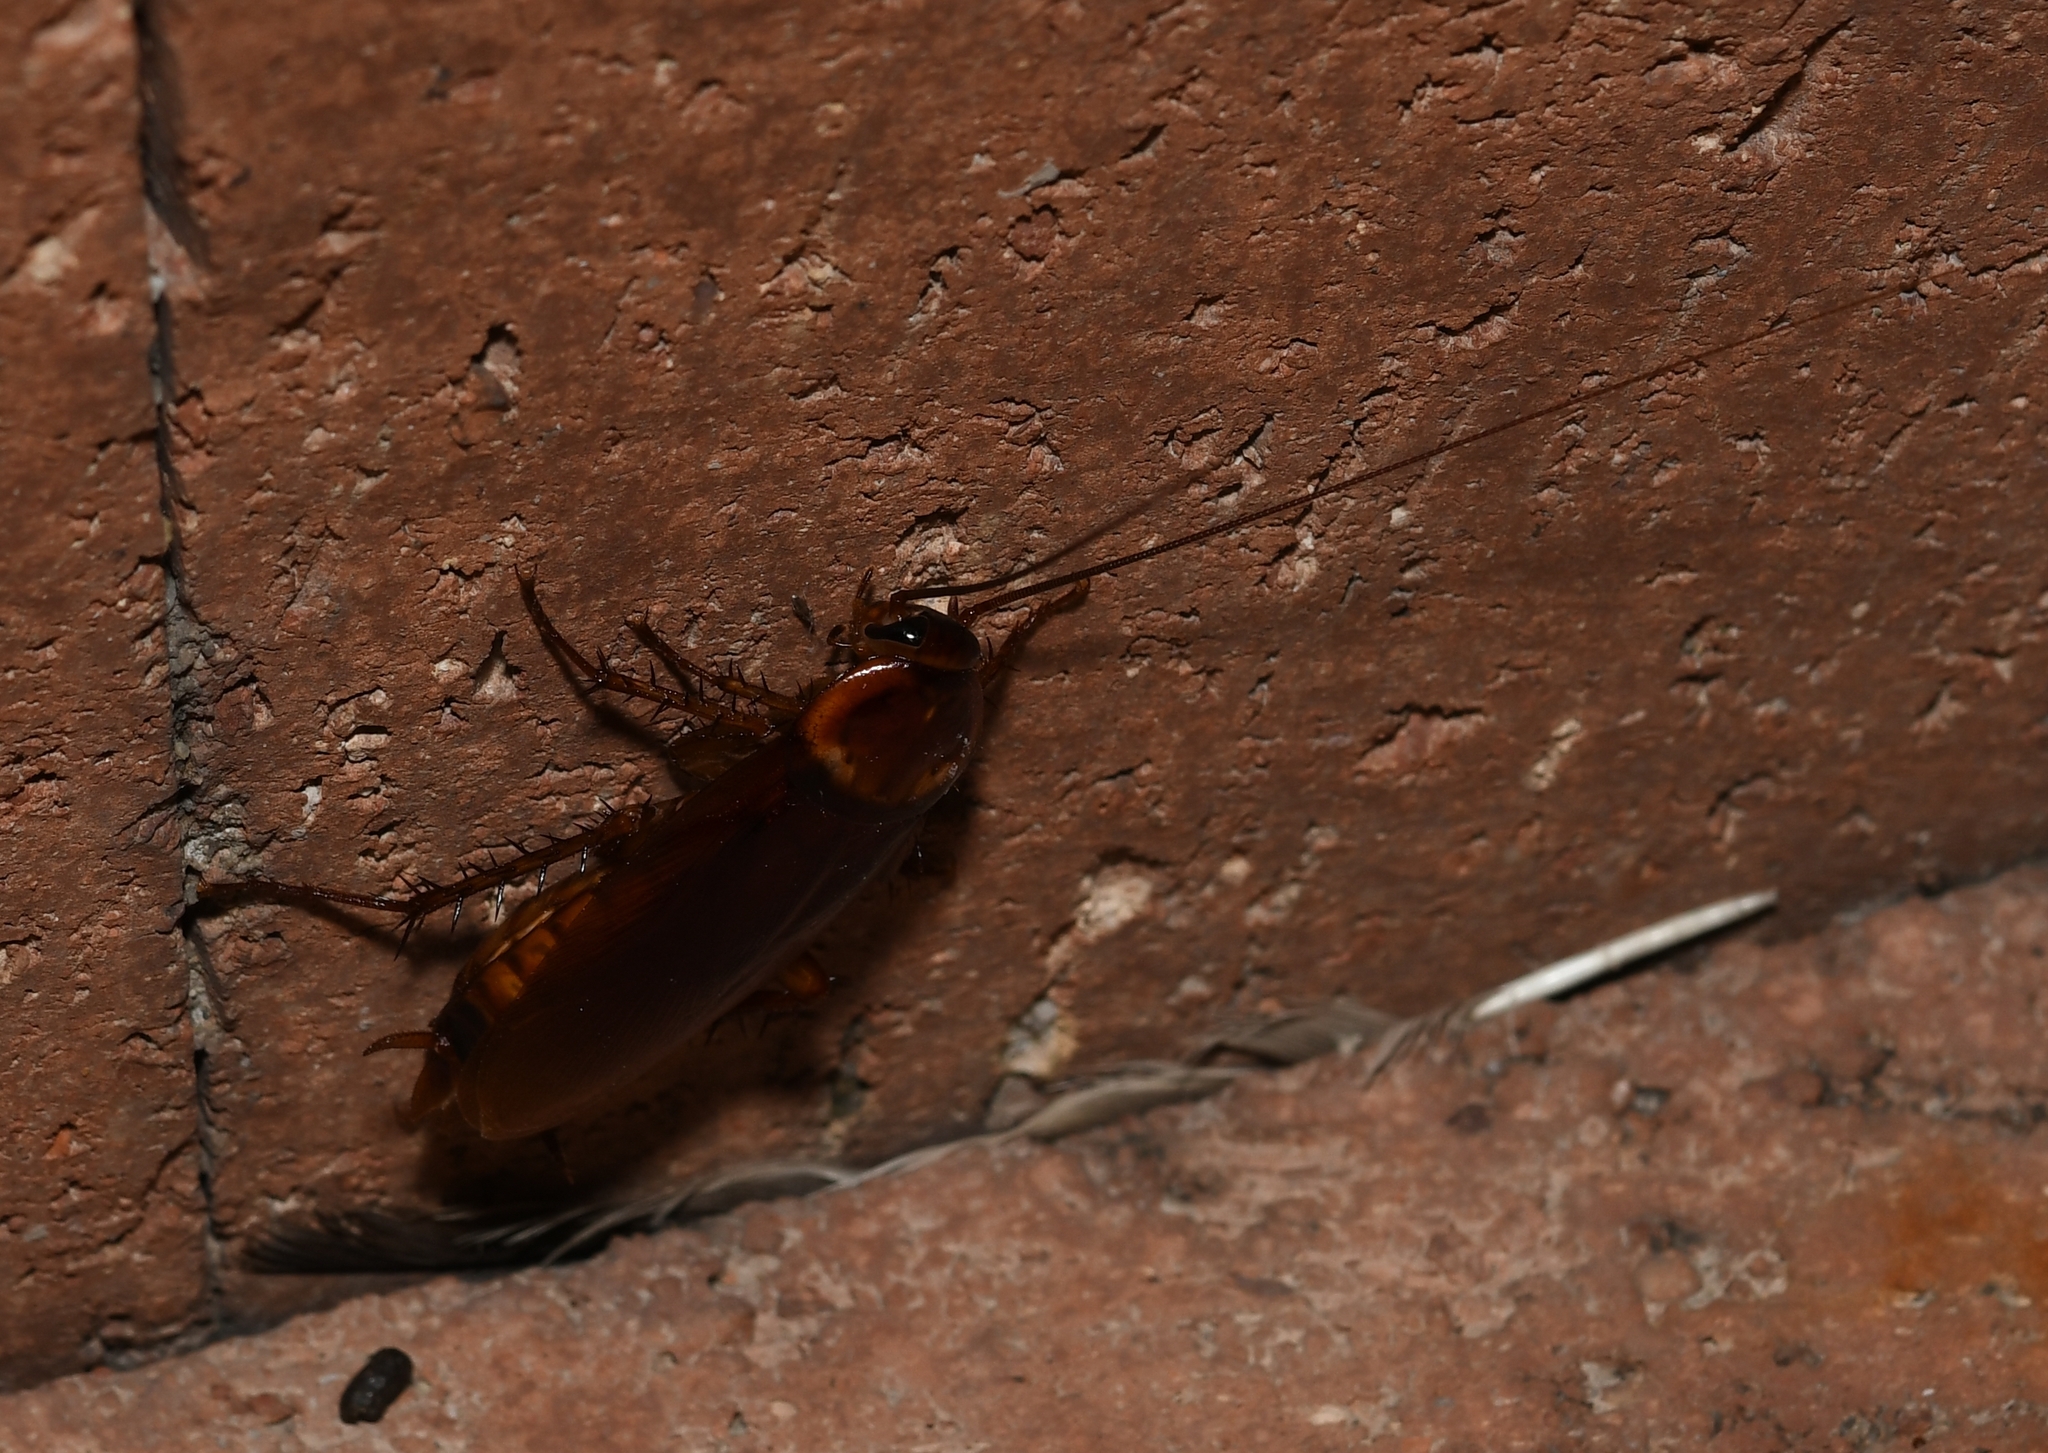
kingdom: Animalia
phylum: Arthropoda
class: Insecta
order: Blattodea
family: Blattidae
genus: Periplaneta
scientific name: Periplaneta americana
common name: American cockroach
